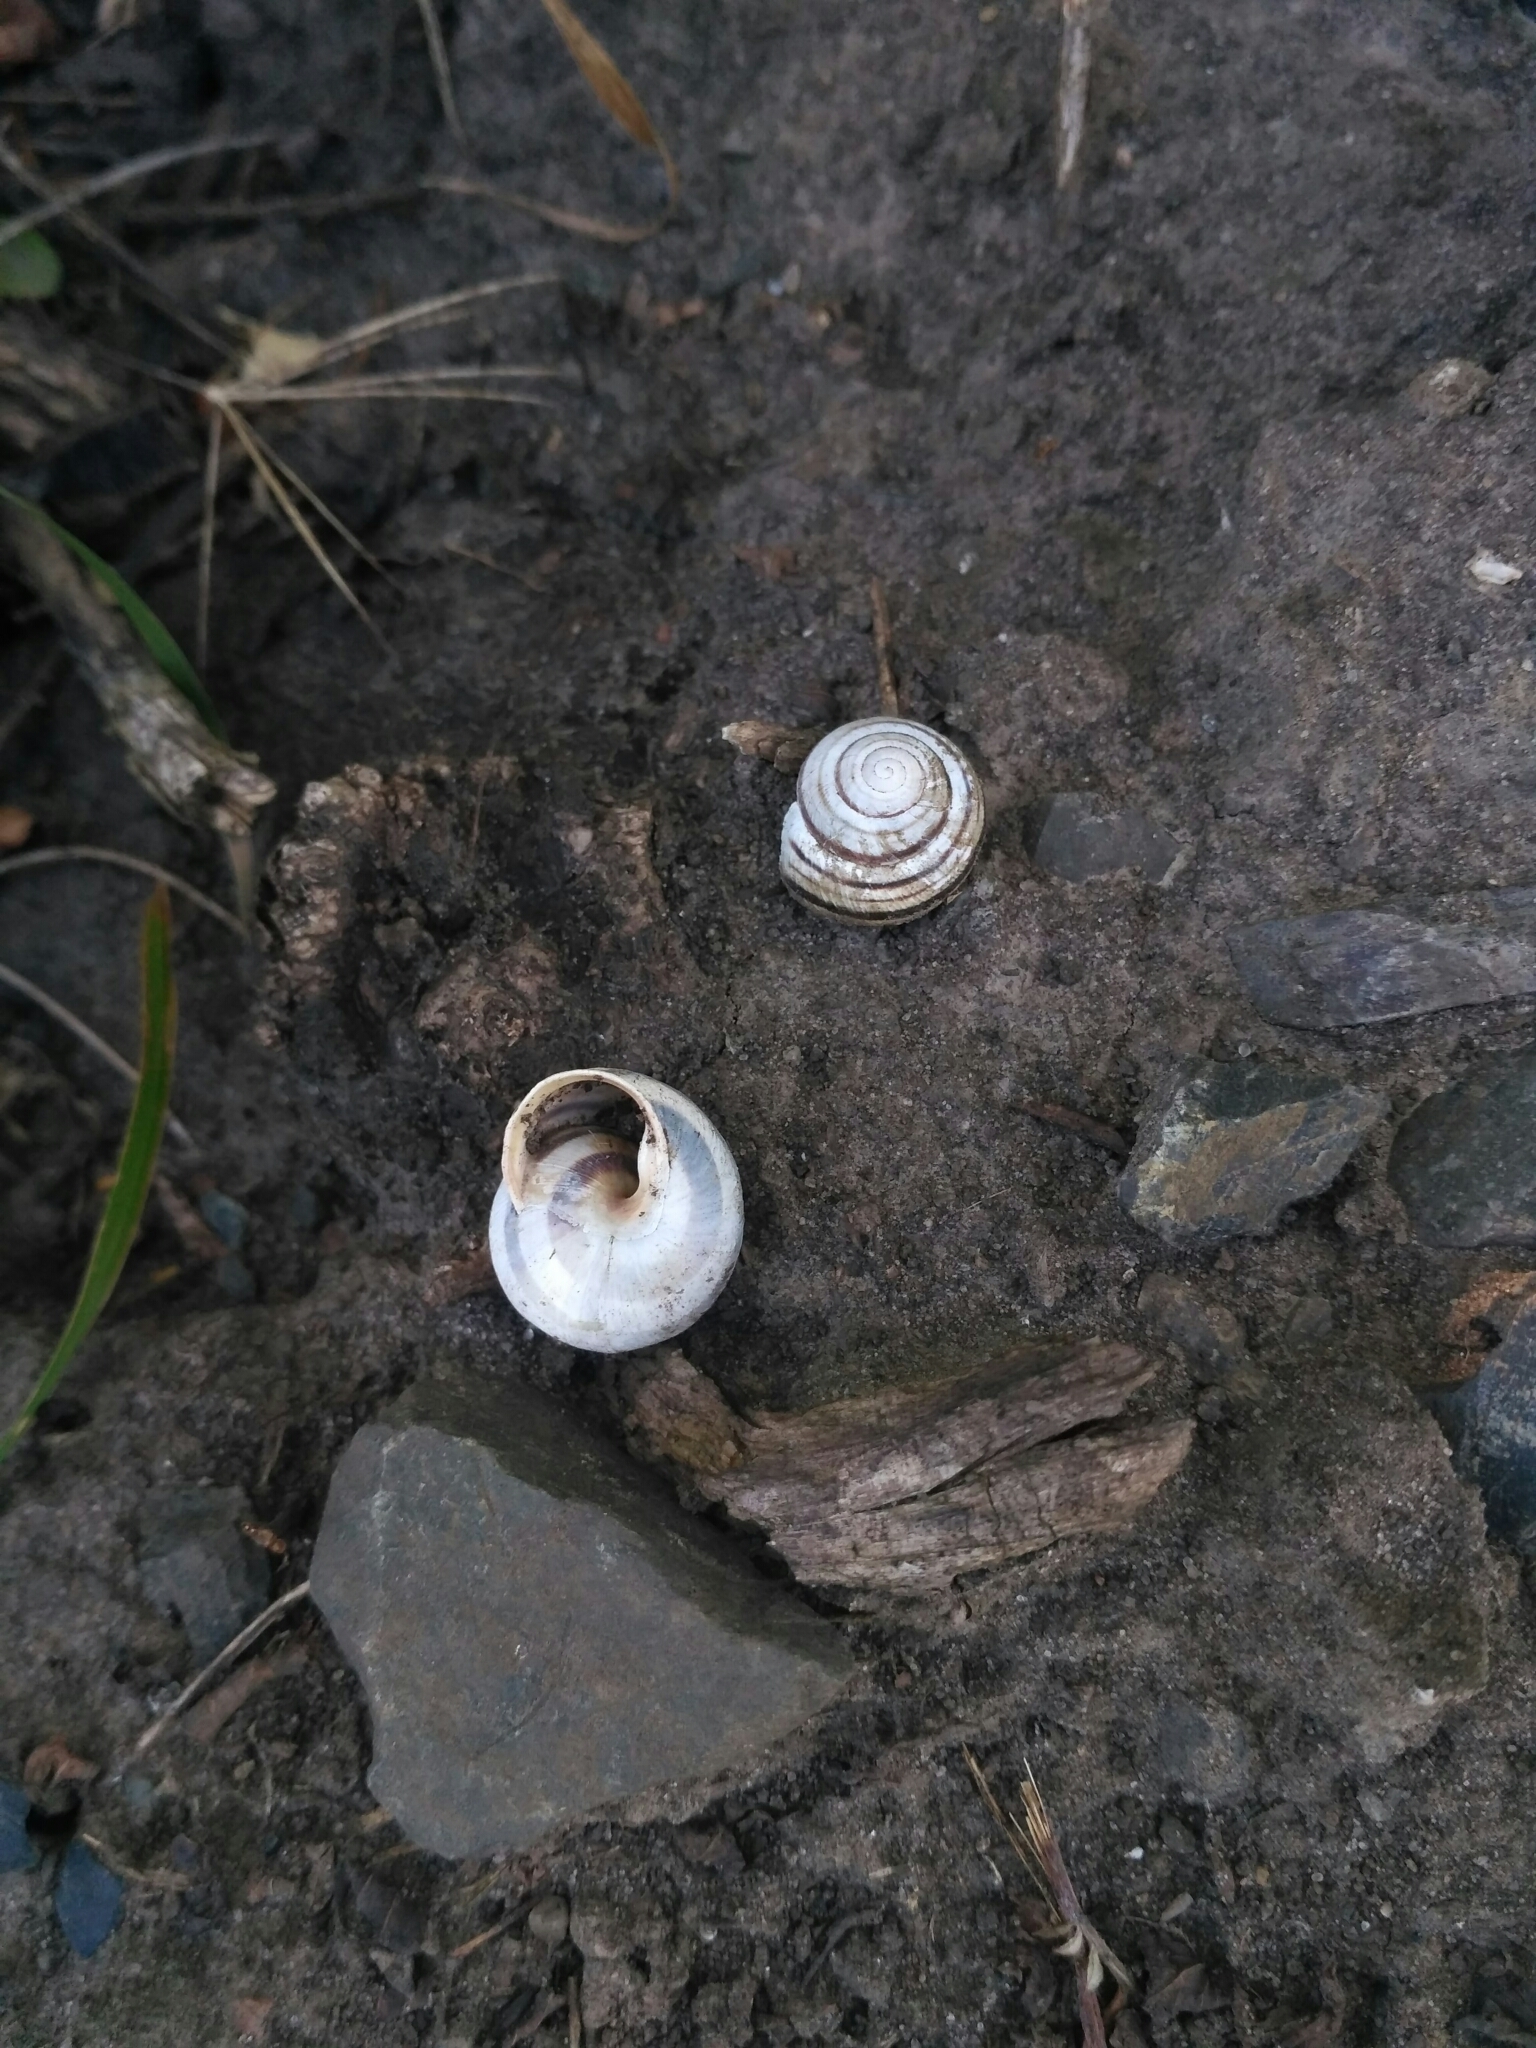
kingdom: Animalia
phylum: Mollusca
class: Gastropoda
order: Stylommatophora
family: Helicidae
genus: Caucasotachea
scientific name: Caucasotachea vindobonensis
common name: European helicid land snail
